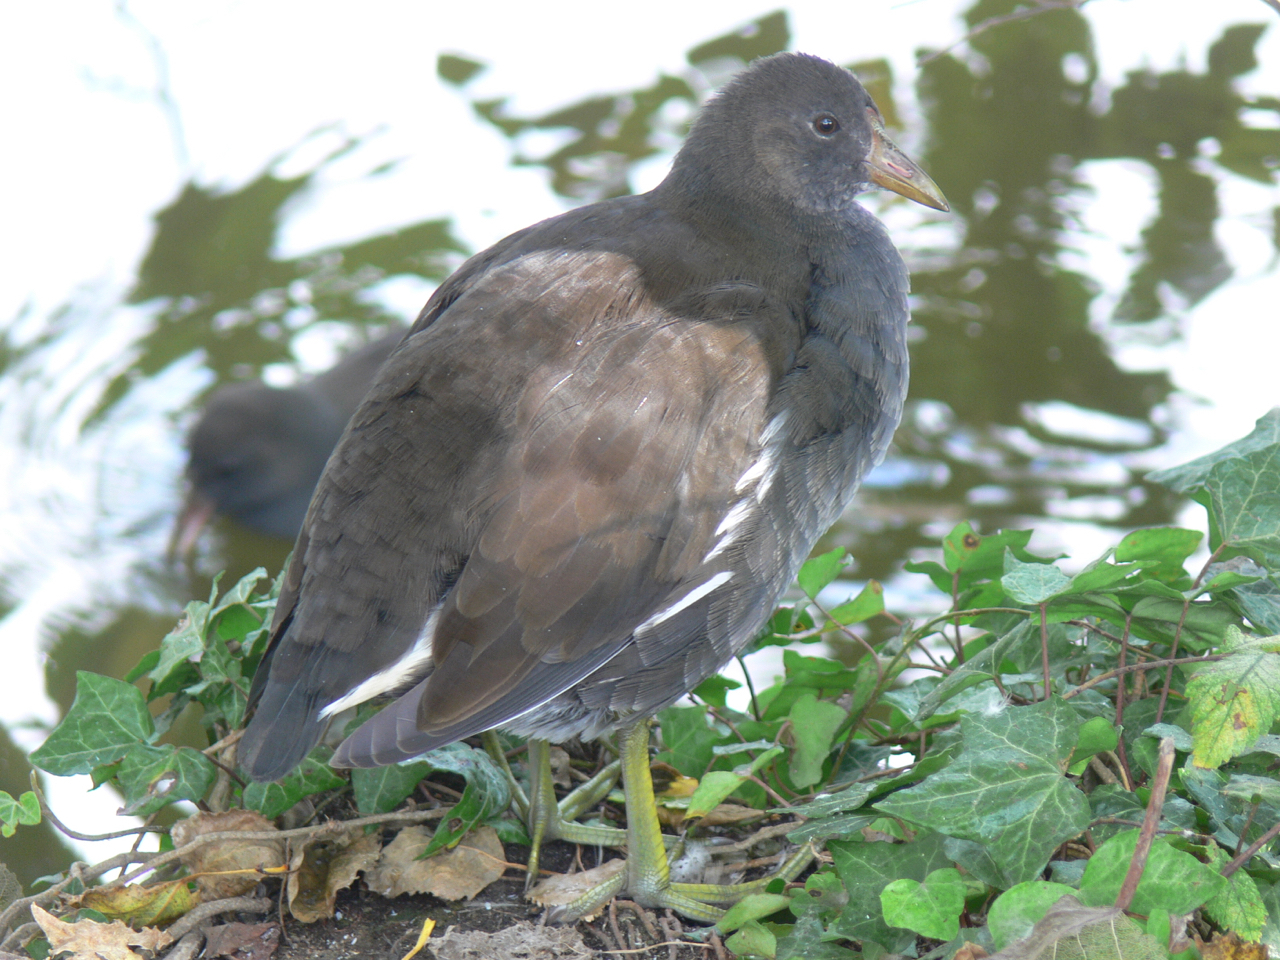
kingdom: Animalia
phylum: Chordata
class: Aves
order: Gruiformes
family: Rallidae
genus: Gallinula
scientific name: Gallinula chloropus
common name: Common moorhen
